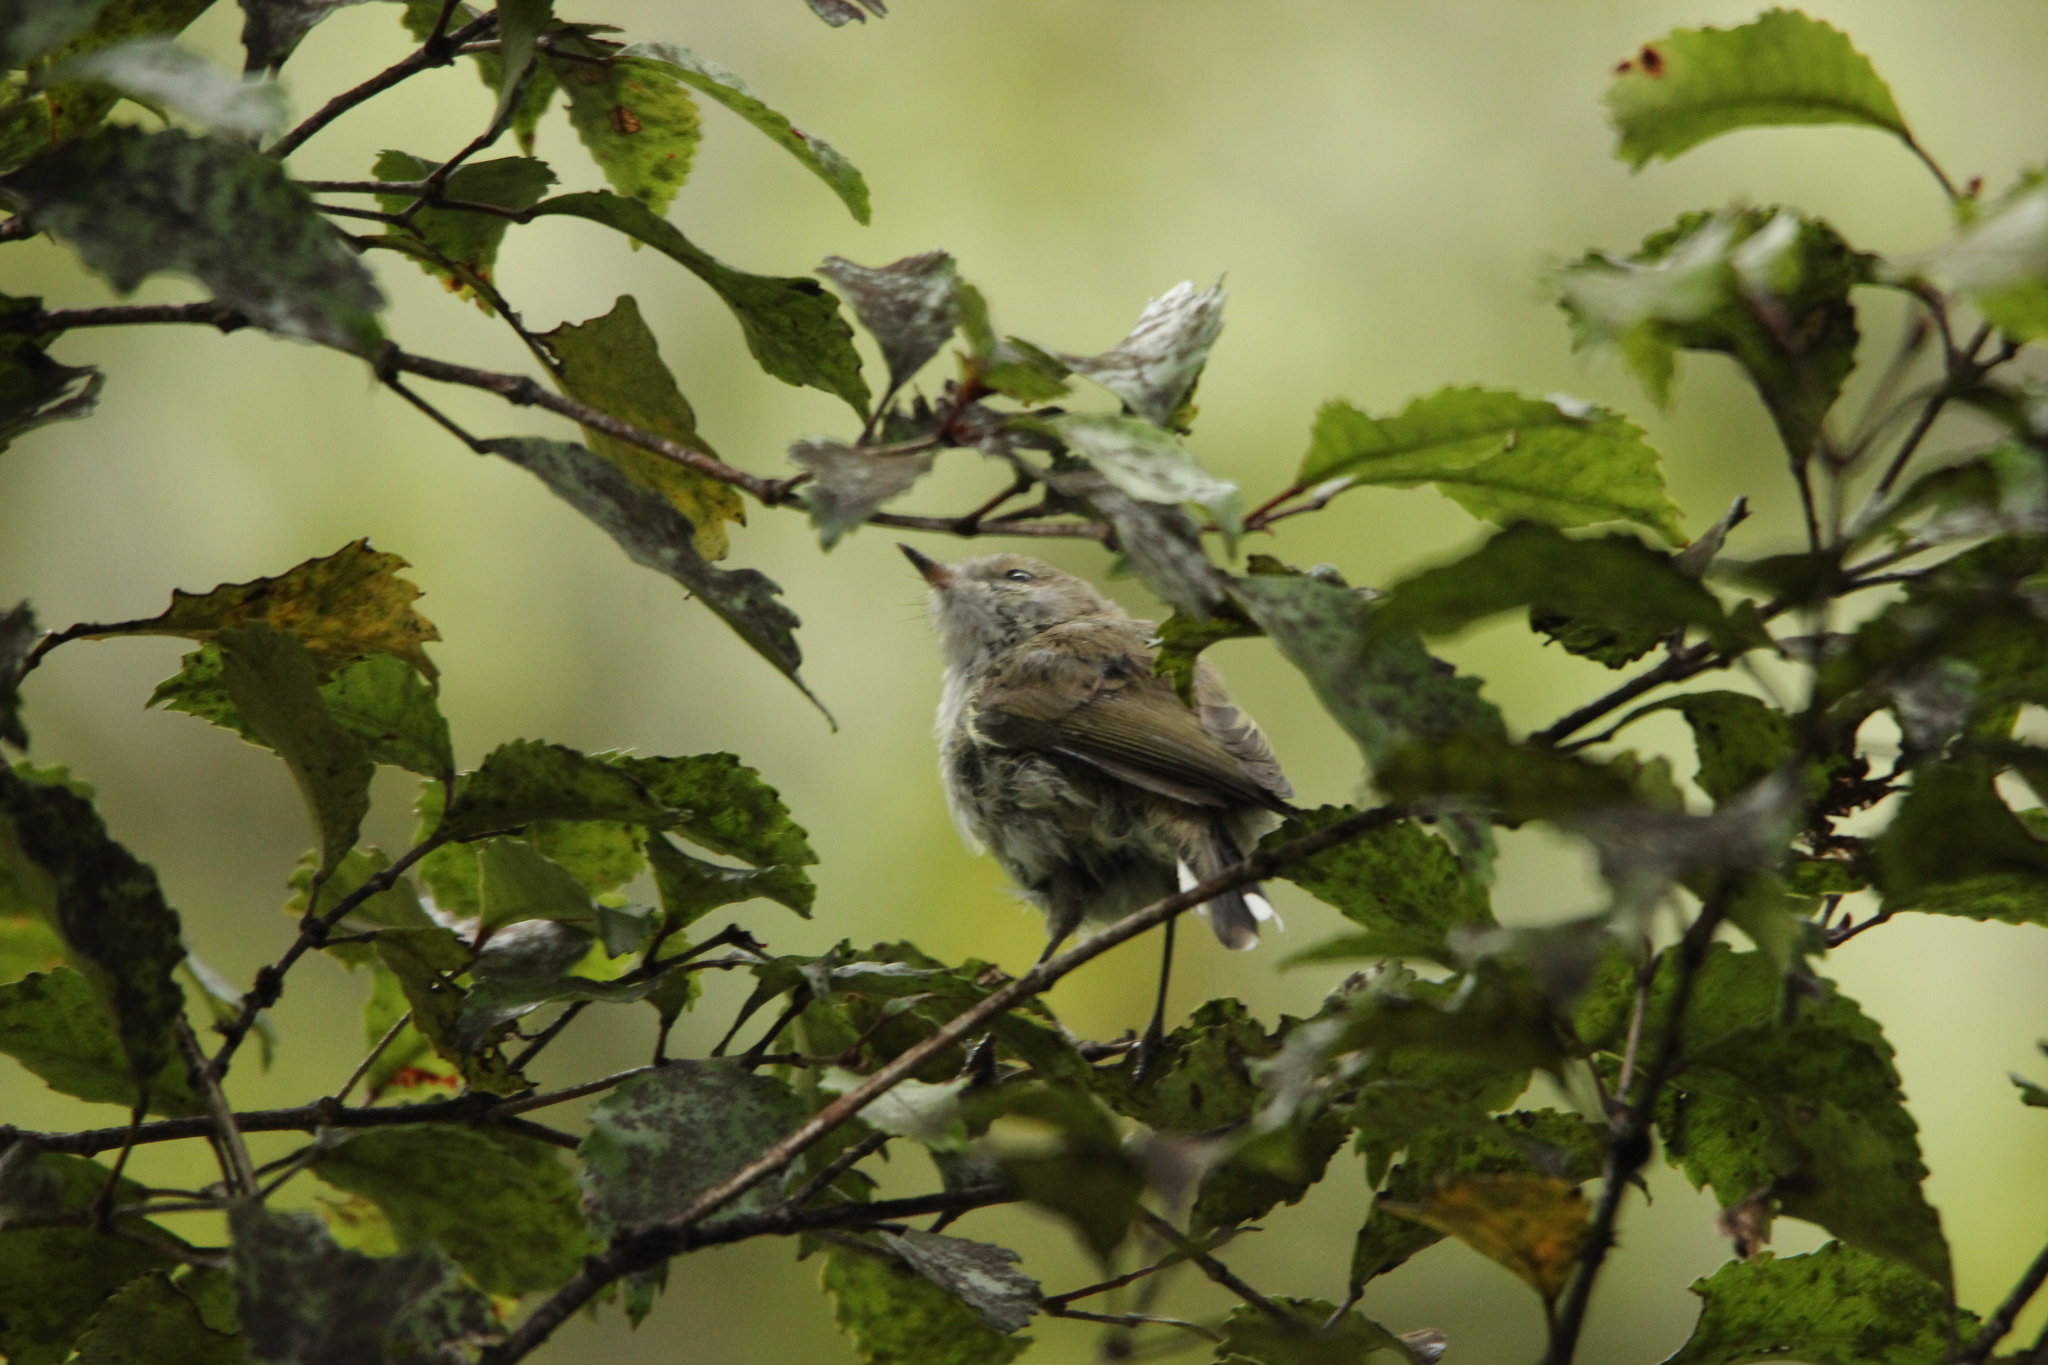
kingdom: Animalia
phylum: Chordata
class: Aves
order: Passeriformes
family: Acanthizidae
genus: Gerygone
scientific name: Gerygone igata
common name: Grey gerygone
